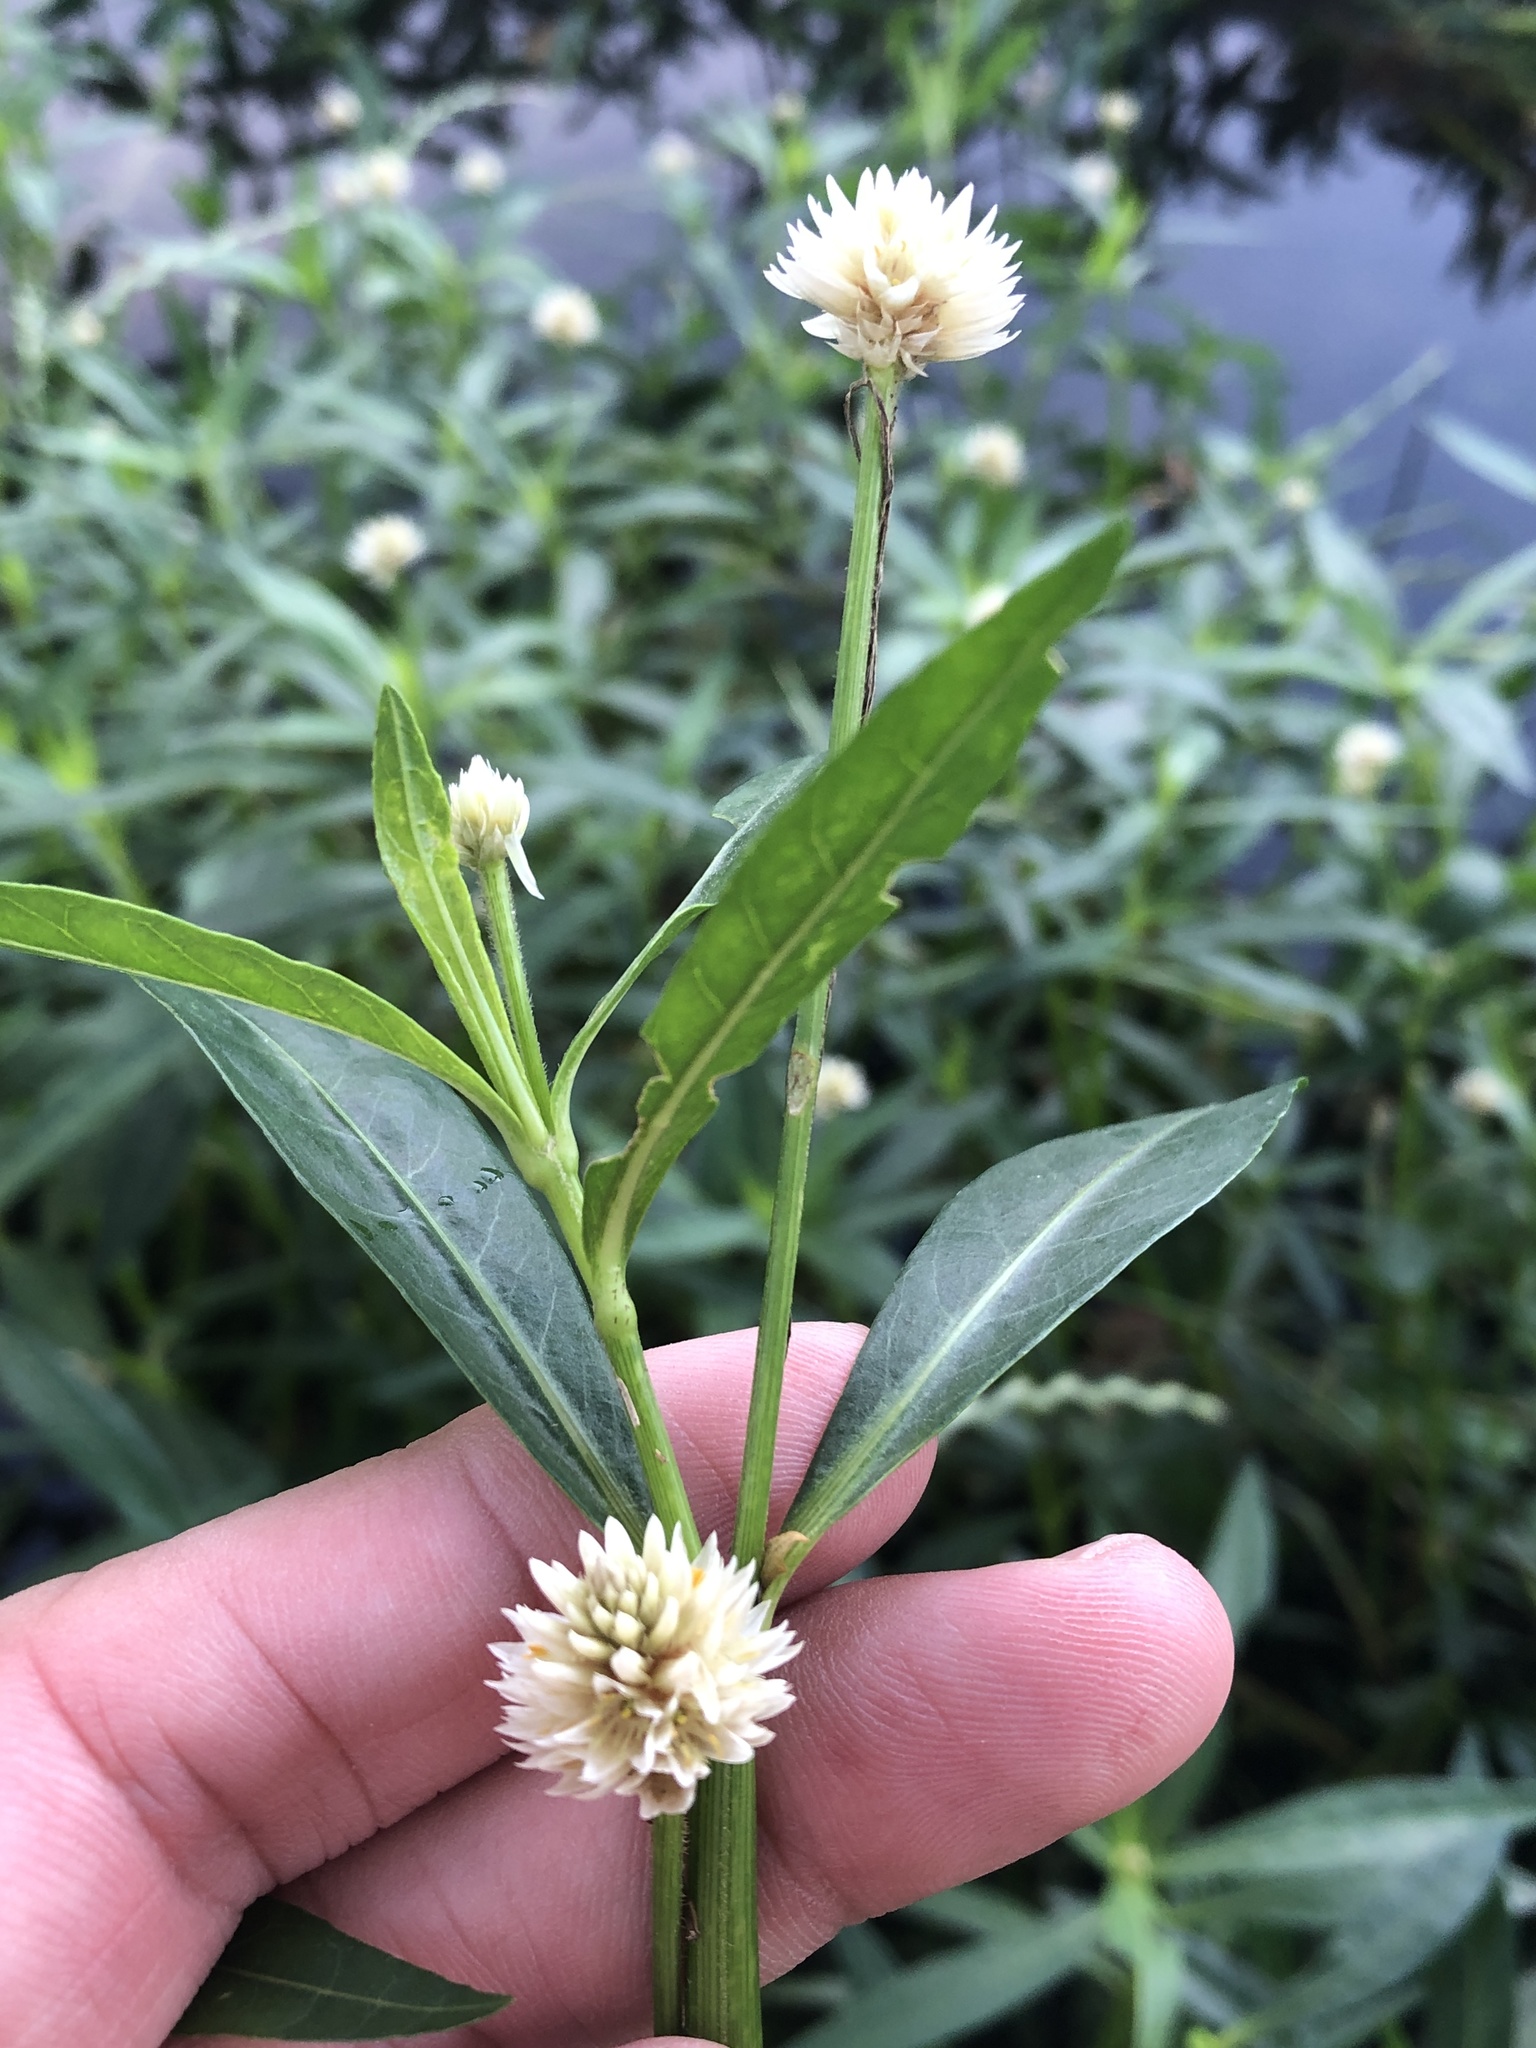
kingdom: Plantae
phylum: Tracheophyta
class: Magnoliopsida
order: Caryophyllales
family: Amaranthaceae
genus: Alternanthera
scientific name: Alternanthera philoxeroides
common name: Alligatorweed
